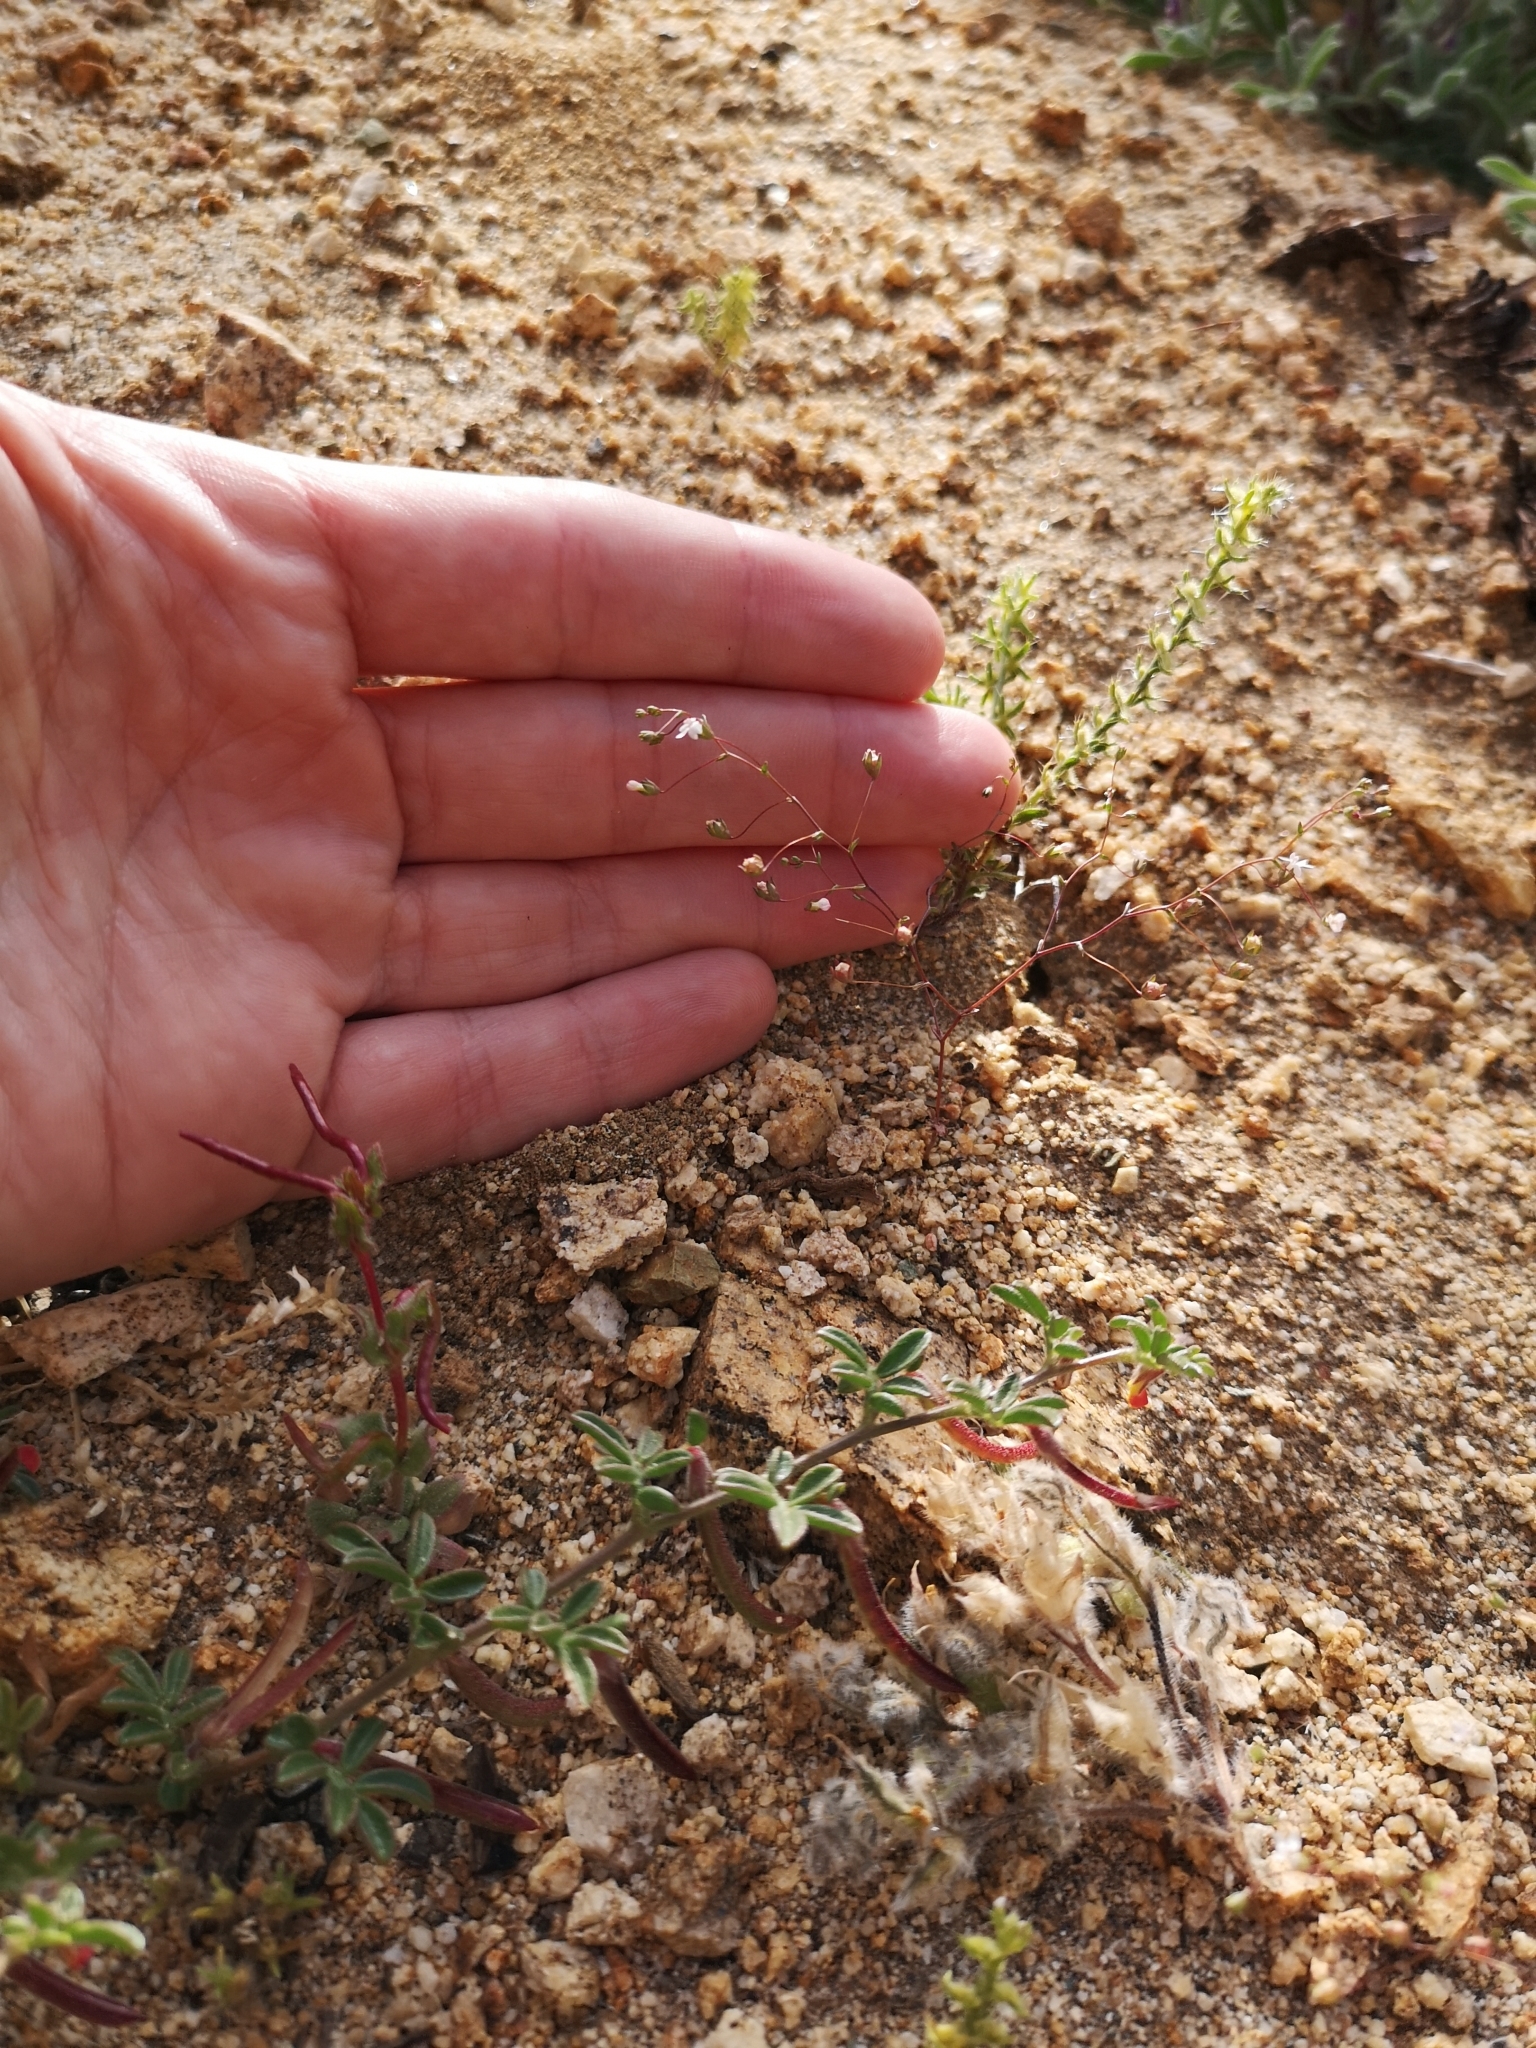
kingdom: Plantae
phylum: Tracheophyta
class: Magnoliopsida
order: Asterales
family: Campanulaceae
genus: Nemacladus
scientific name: Nemacladus sigmoideus
